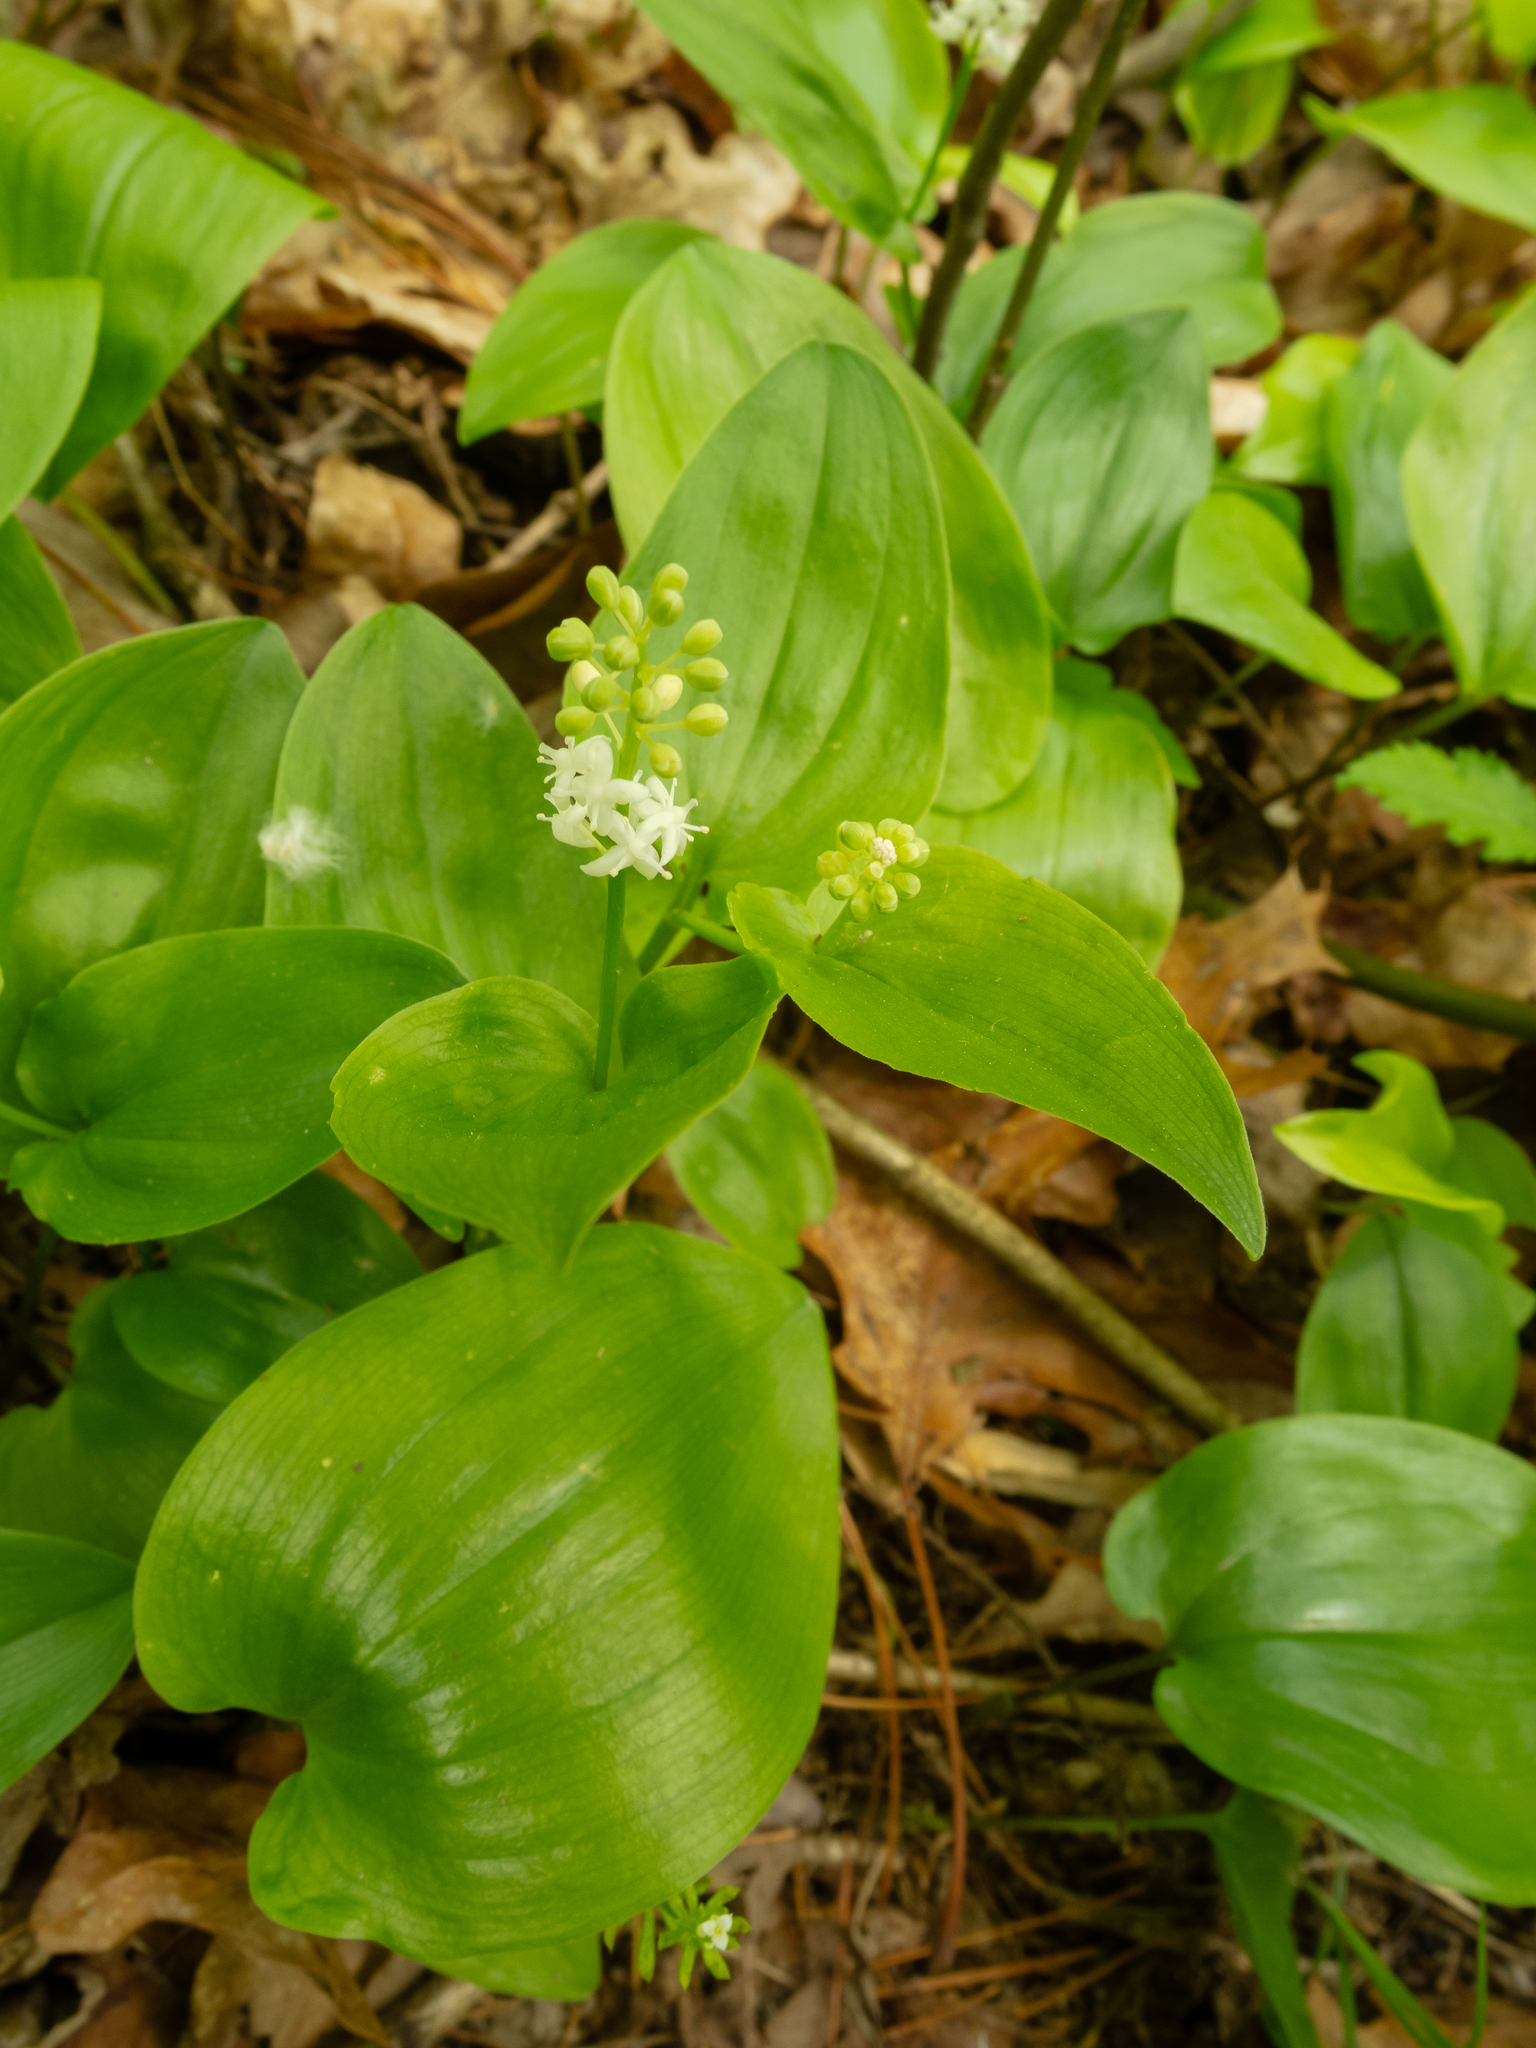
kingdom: Plantae
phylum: Tracheophyta
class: Liliopsida
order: Asparagales
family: Asparagaceae
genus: Maianthemum
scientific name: Maianthemum canadense
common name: False lily-of-the-valley
